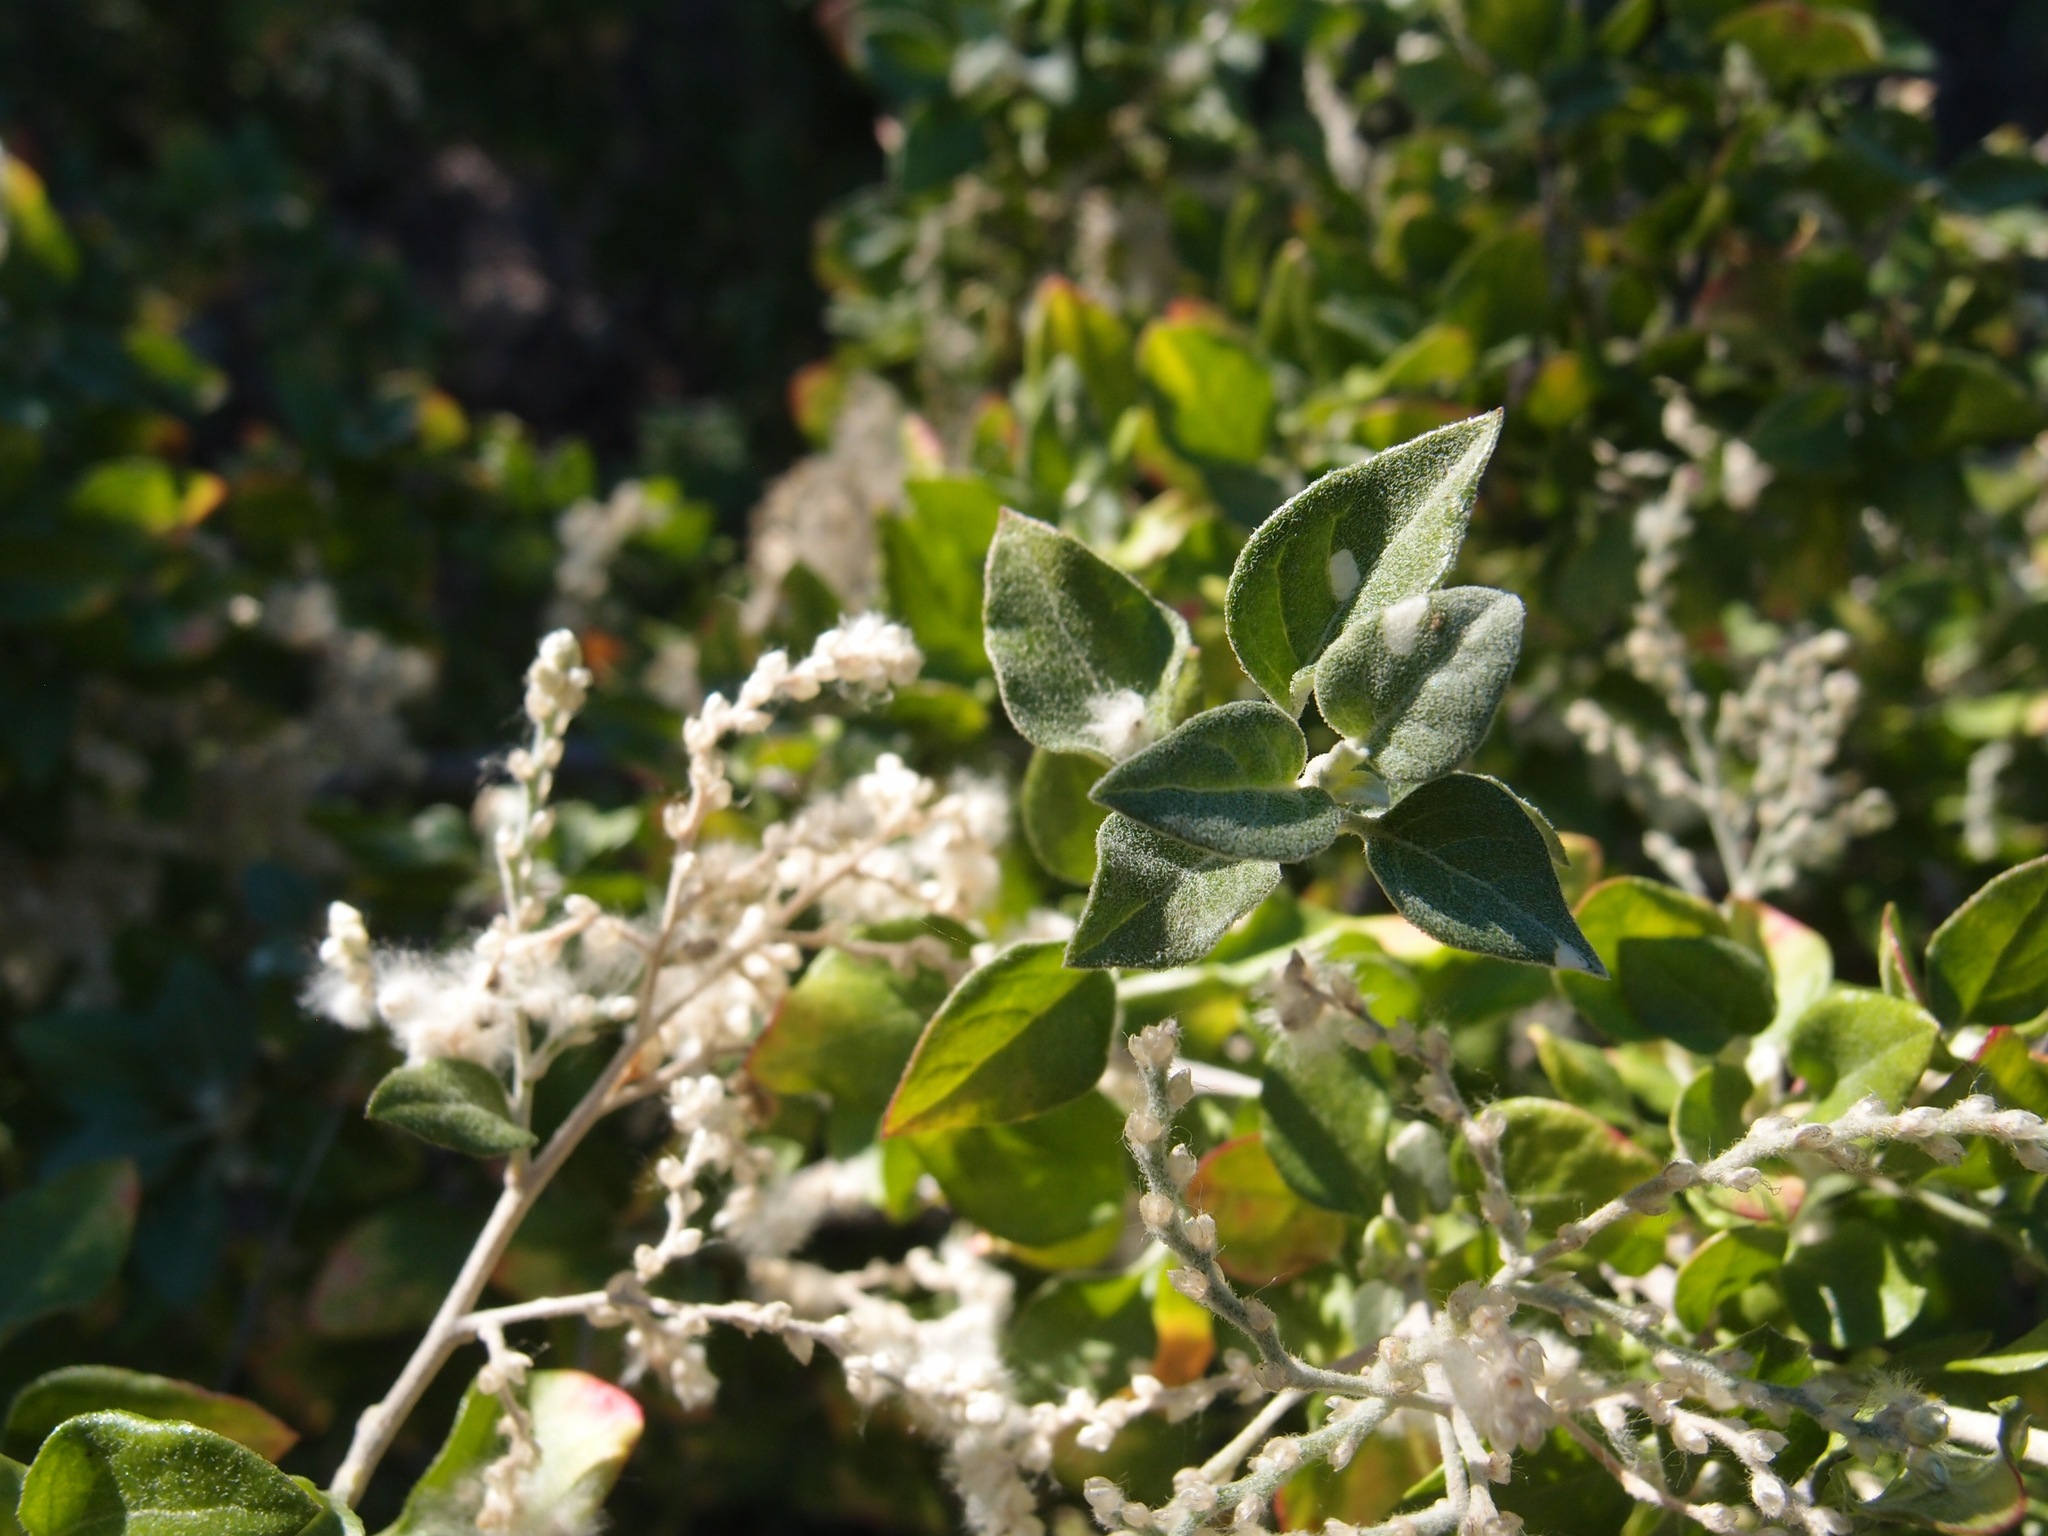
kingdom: Plantae
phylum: Tracheophyta
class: Magnoliopsida
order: Caryophyllales
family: Amaranthaceae
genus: Iresine
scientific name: Iresine alternifolia
